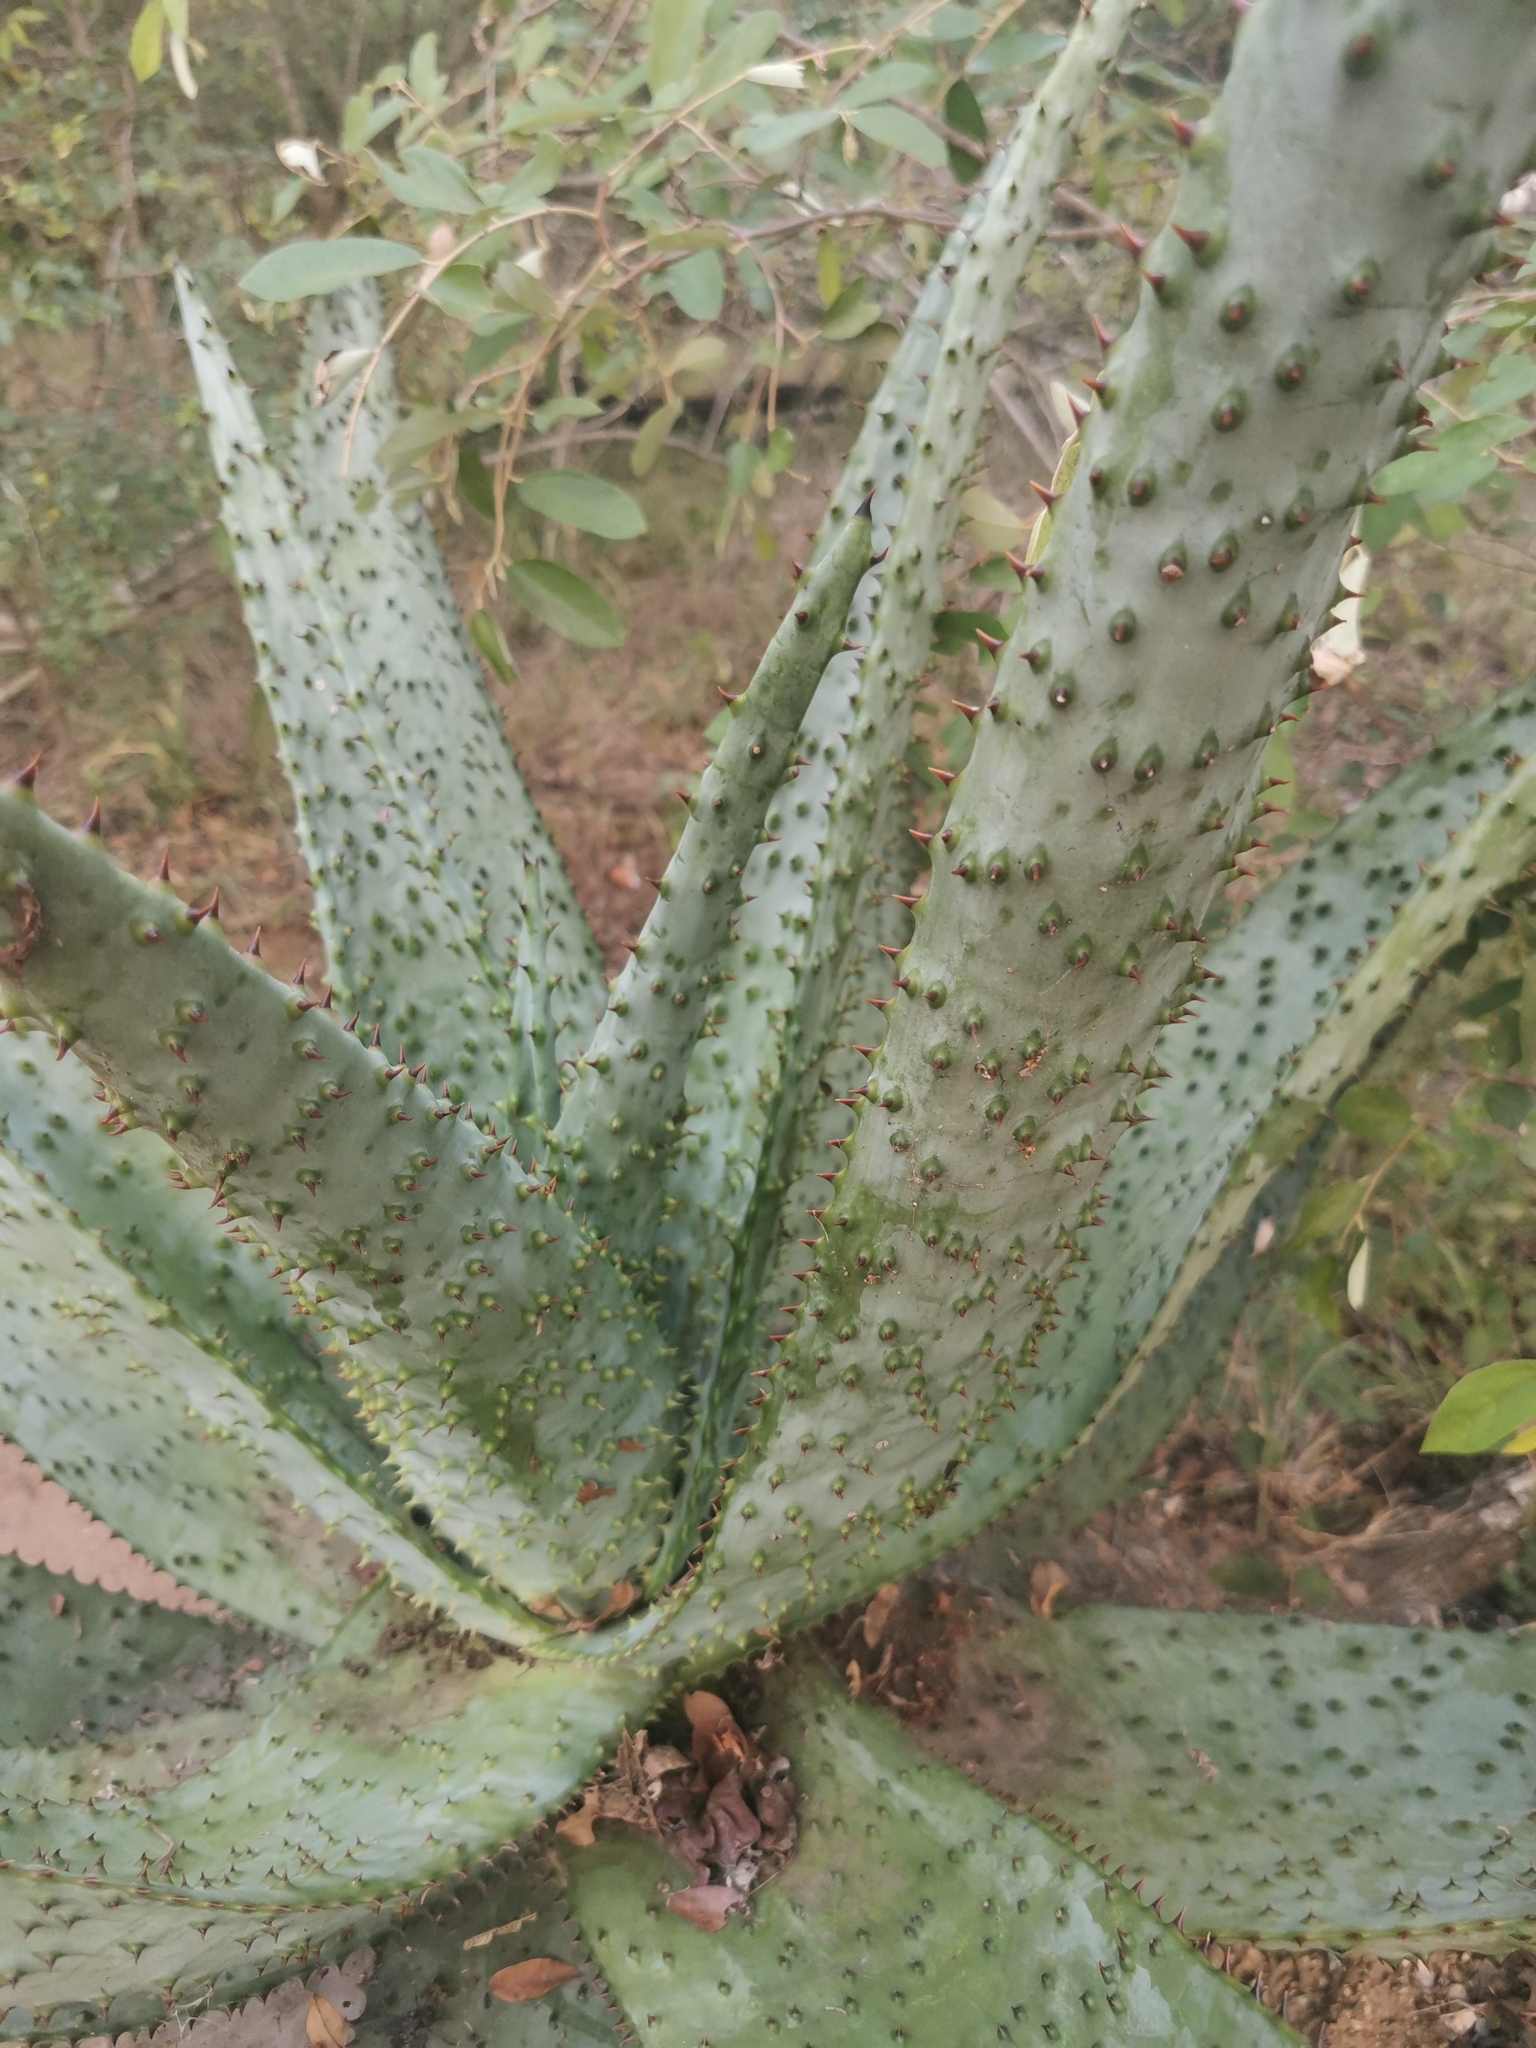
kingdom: Plantae
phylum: Tracheophyta
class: Liliopsida
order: Asparagales
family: Asphodelaceae
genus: Aloe
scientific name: Aloe marlothii
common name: Flat-flowered aloe
